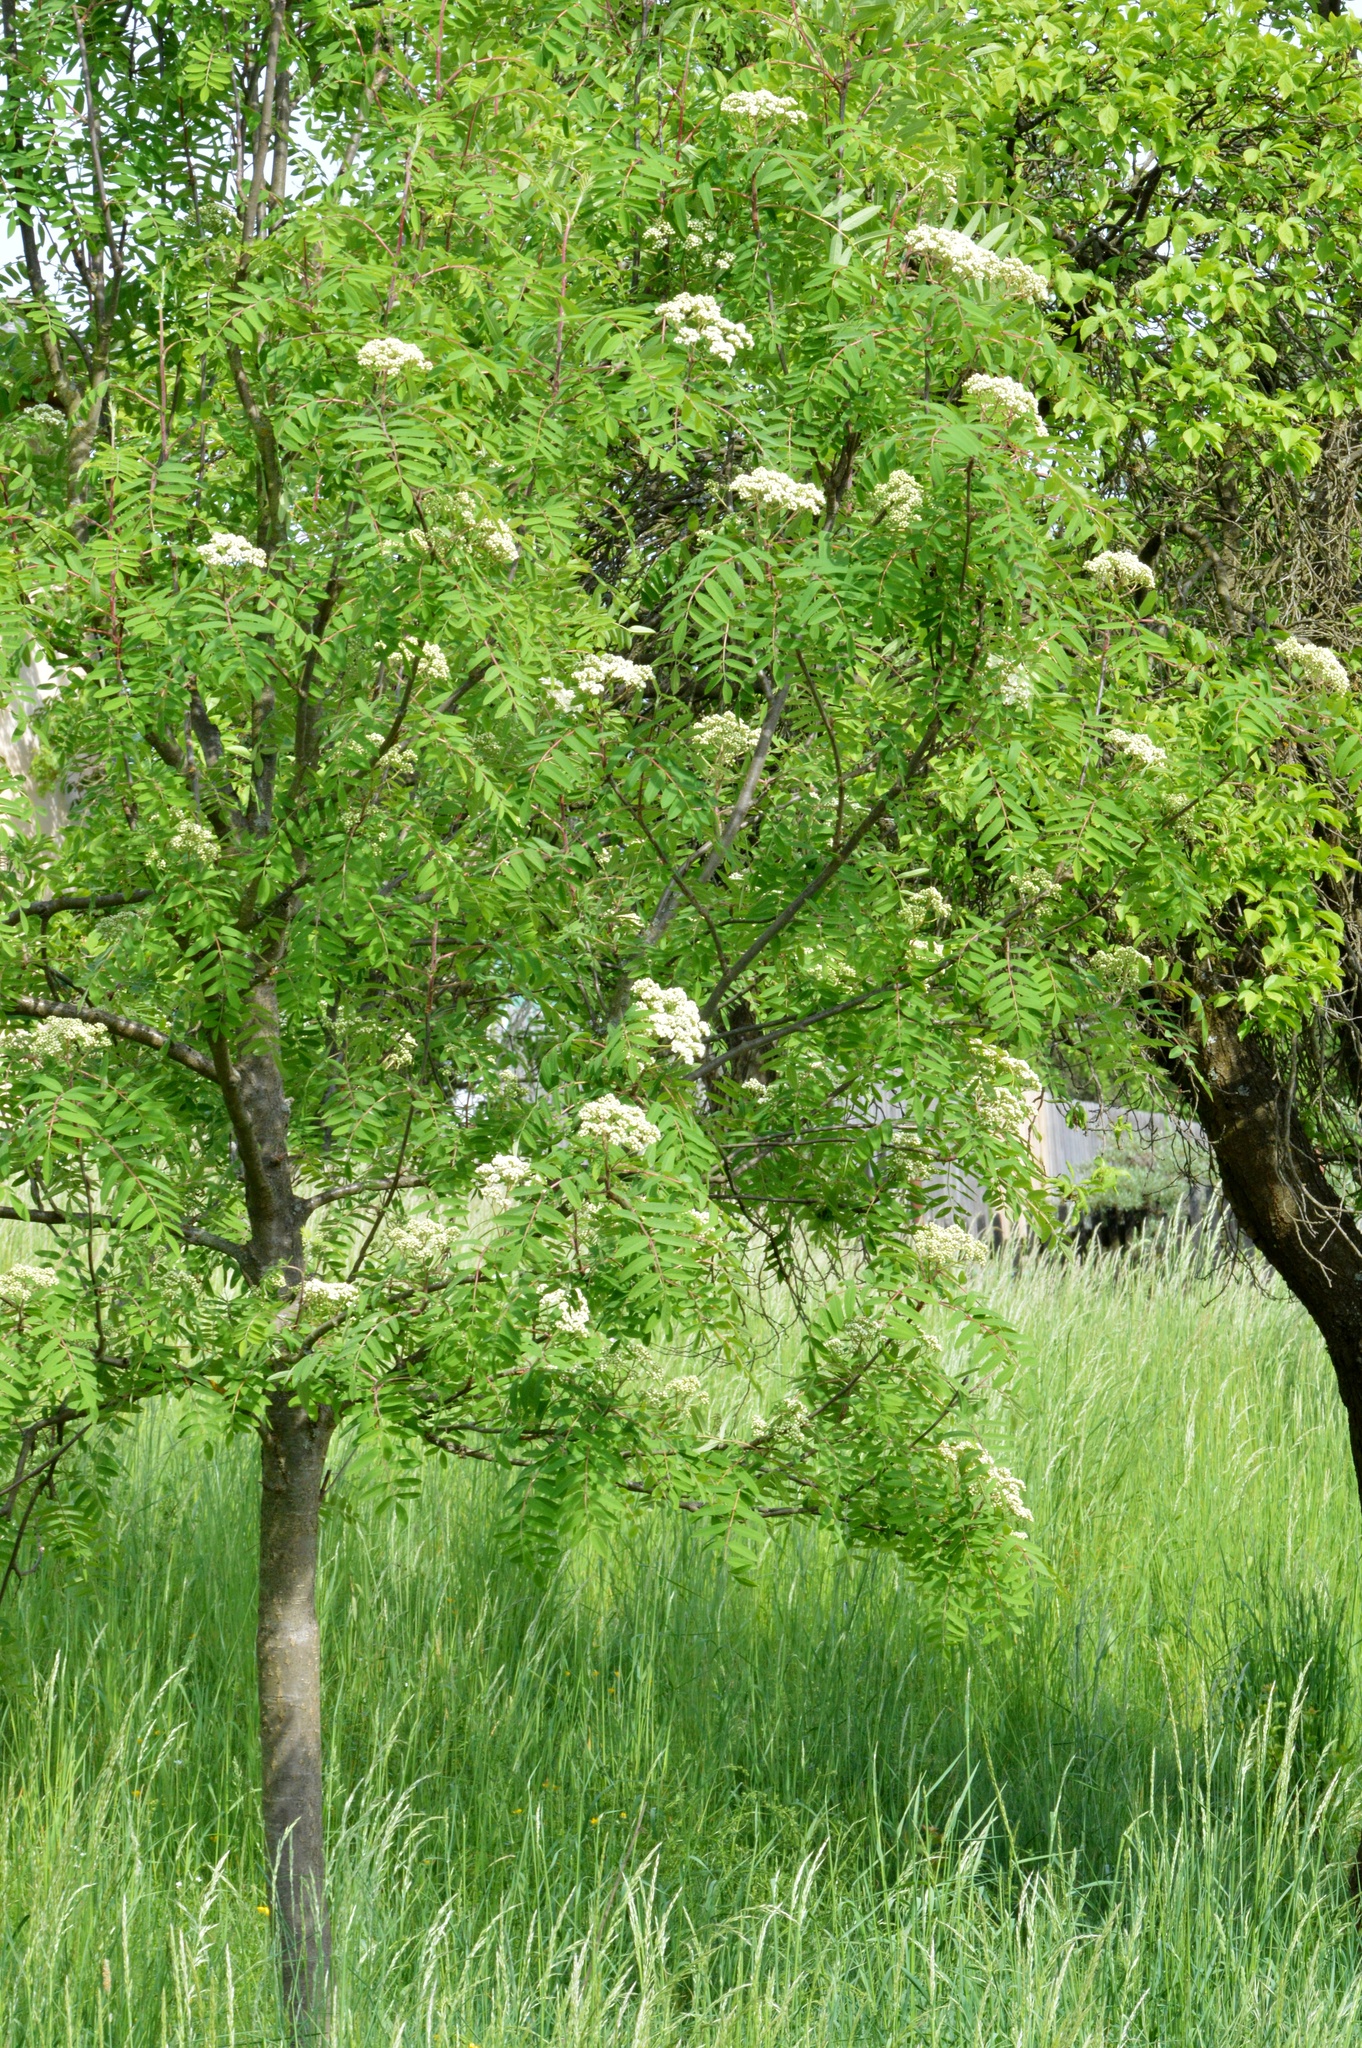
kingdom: Plantae
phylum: Tracheophyta
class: Magnoliopsida
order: Rosales
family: Rosaceae
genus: Sorbus
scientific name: Sorbus aucuparia
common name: Rowan
